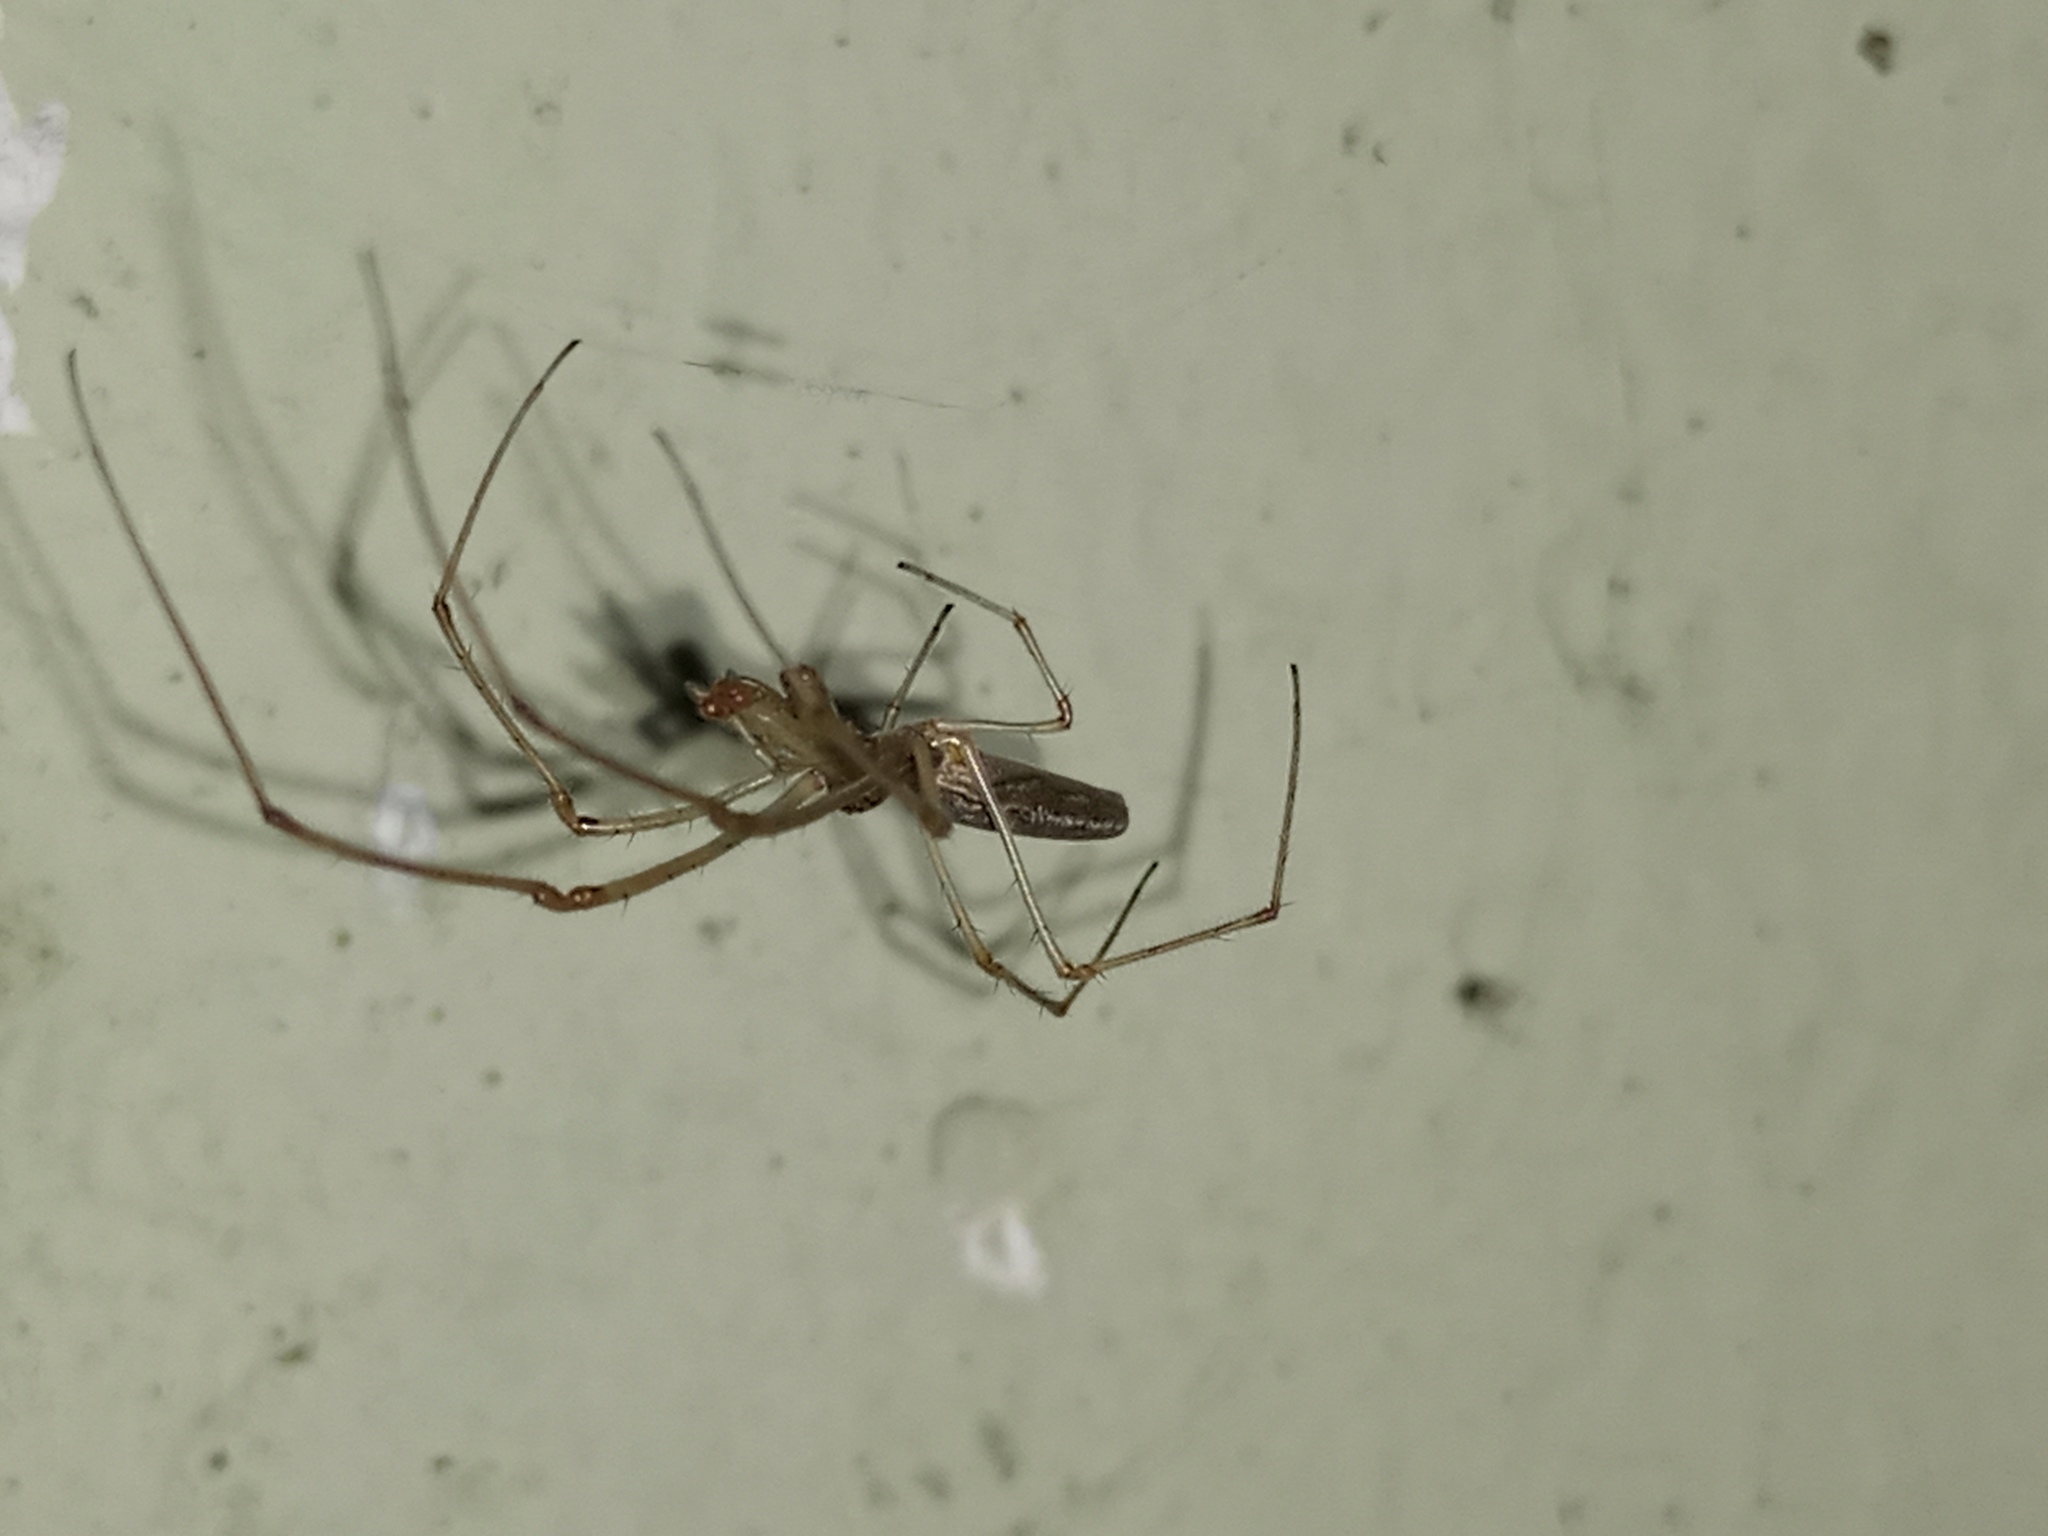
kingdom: Animalia
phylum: Arthropoda
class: Arachnida
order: Araneae
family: Tetragnathidae
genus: Tetragnatha
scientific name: Tetragnatha
